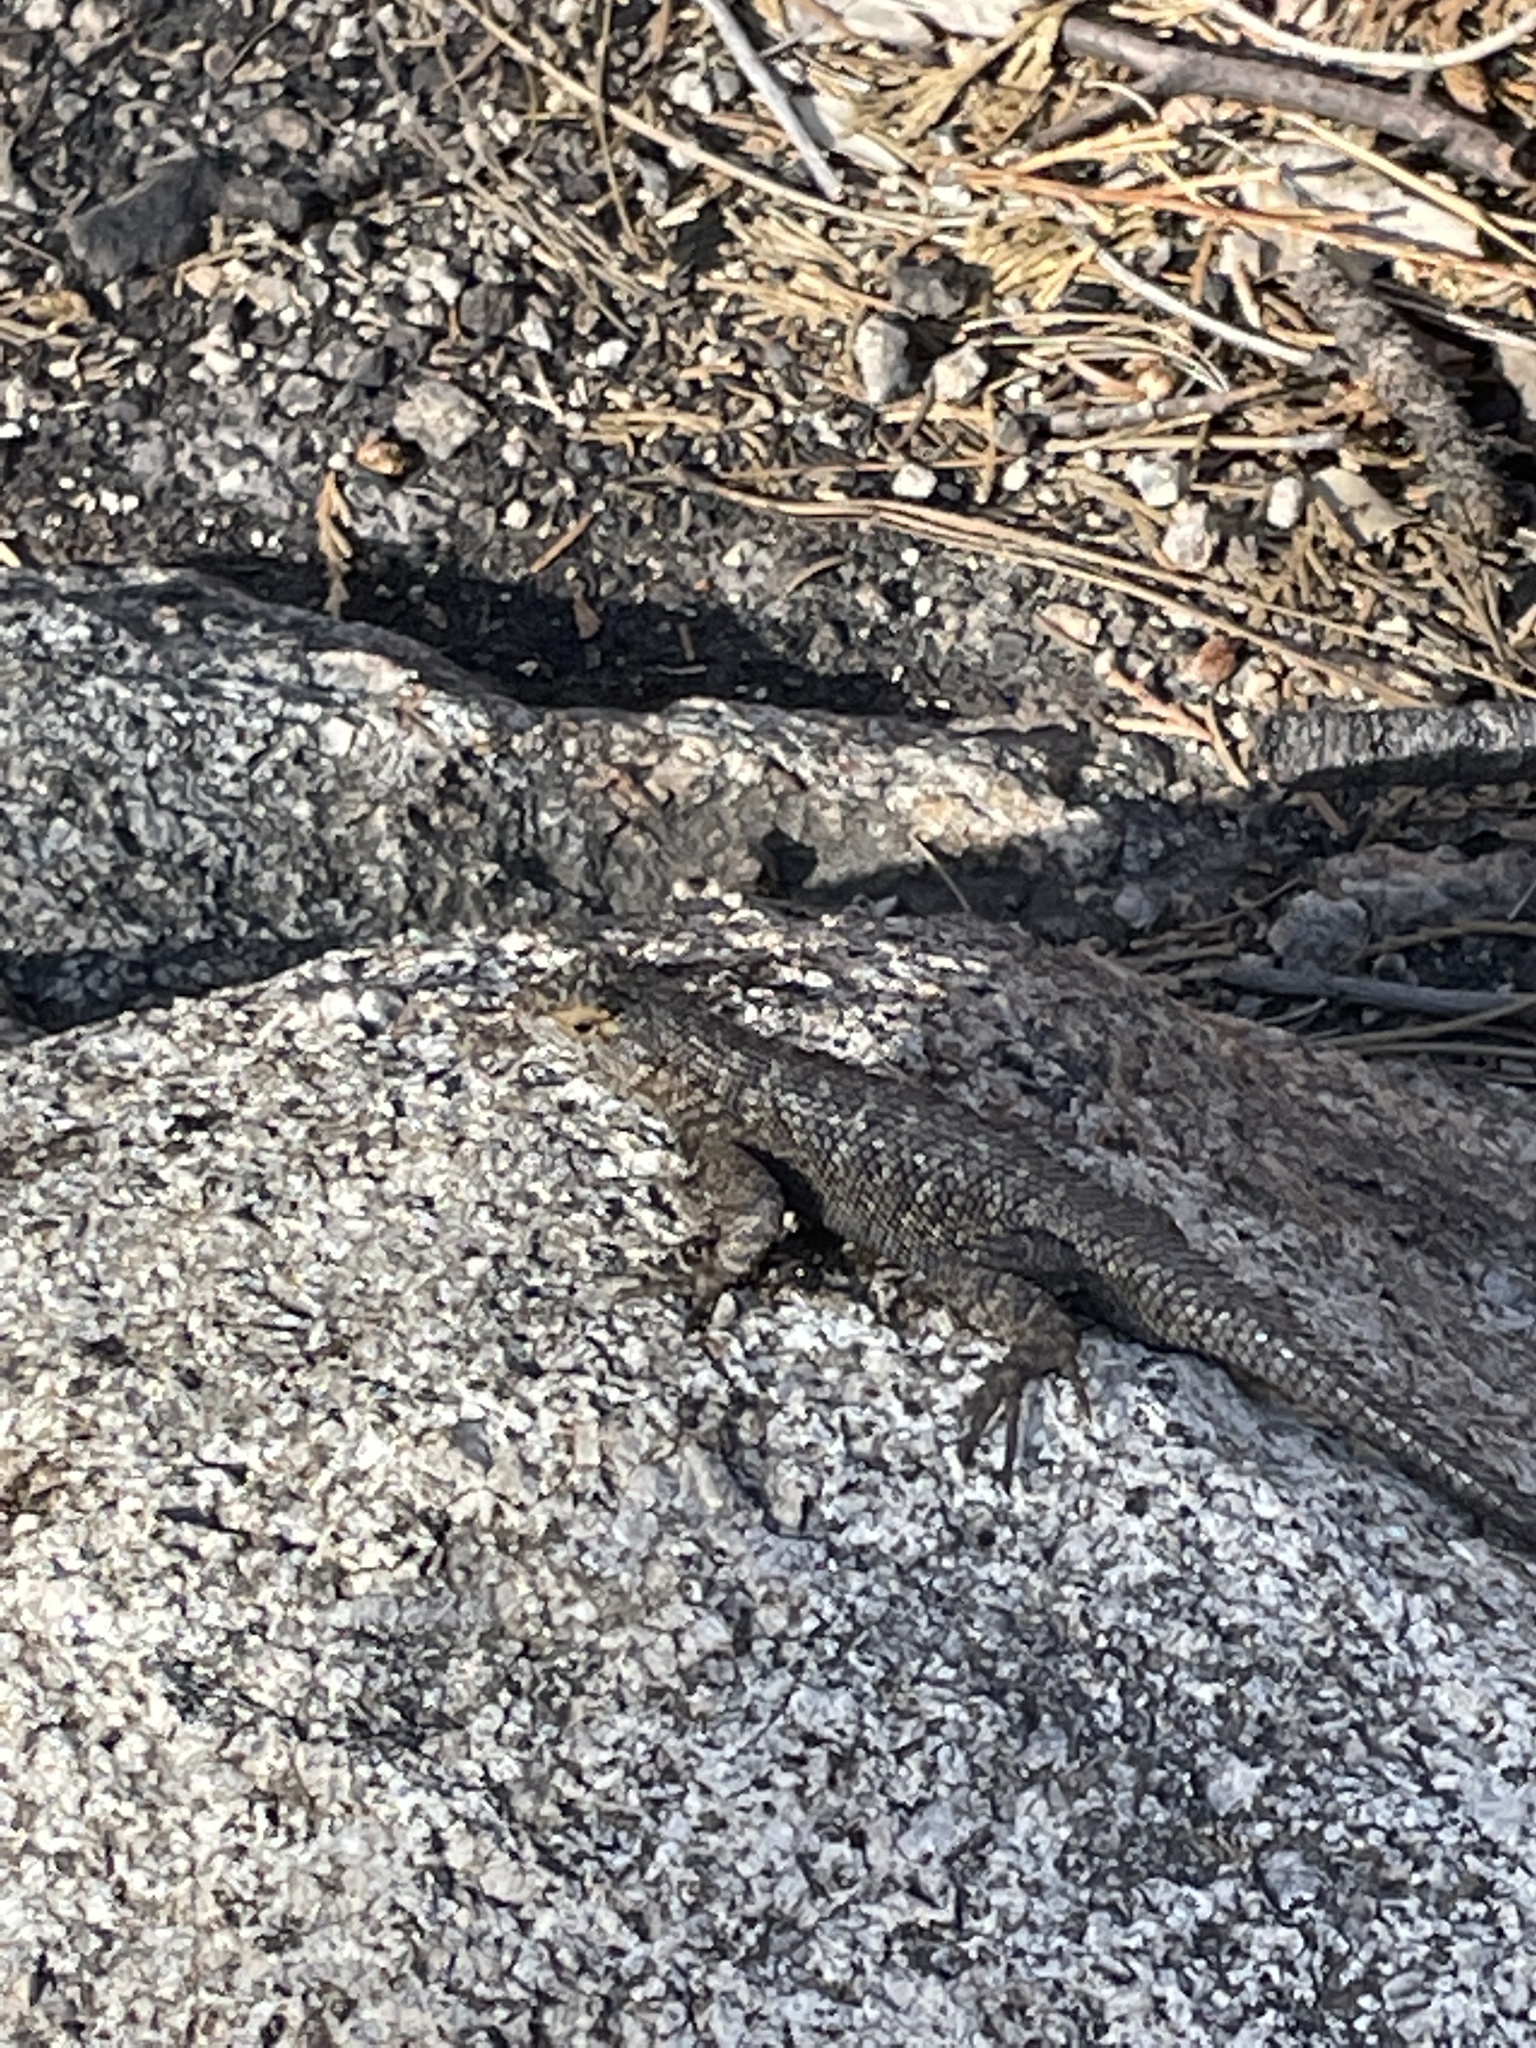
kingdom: Animalia
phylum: Chordata
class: Squamata
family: Phrynosomatidae
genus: Sceloporus
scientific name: Sceloporus occidentalis
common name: Western fence lizard
